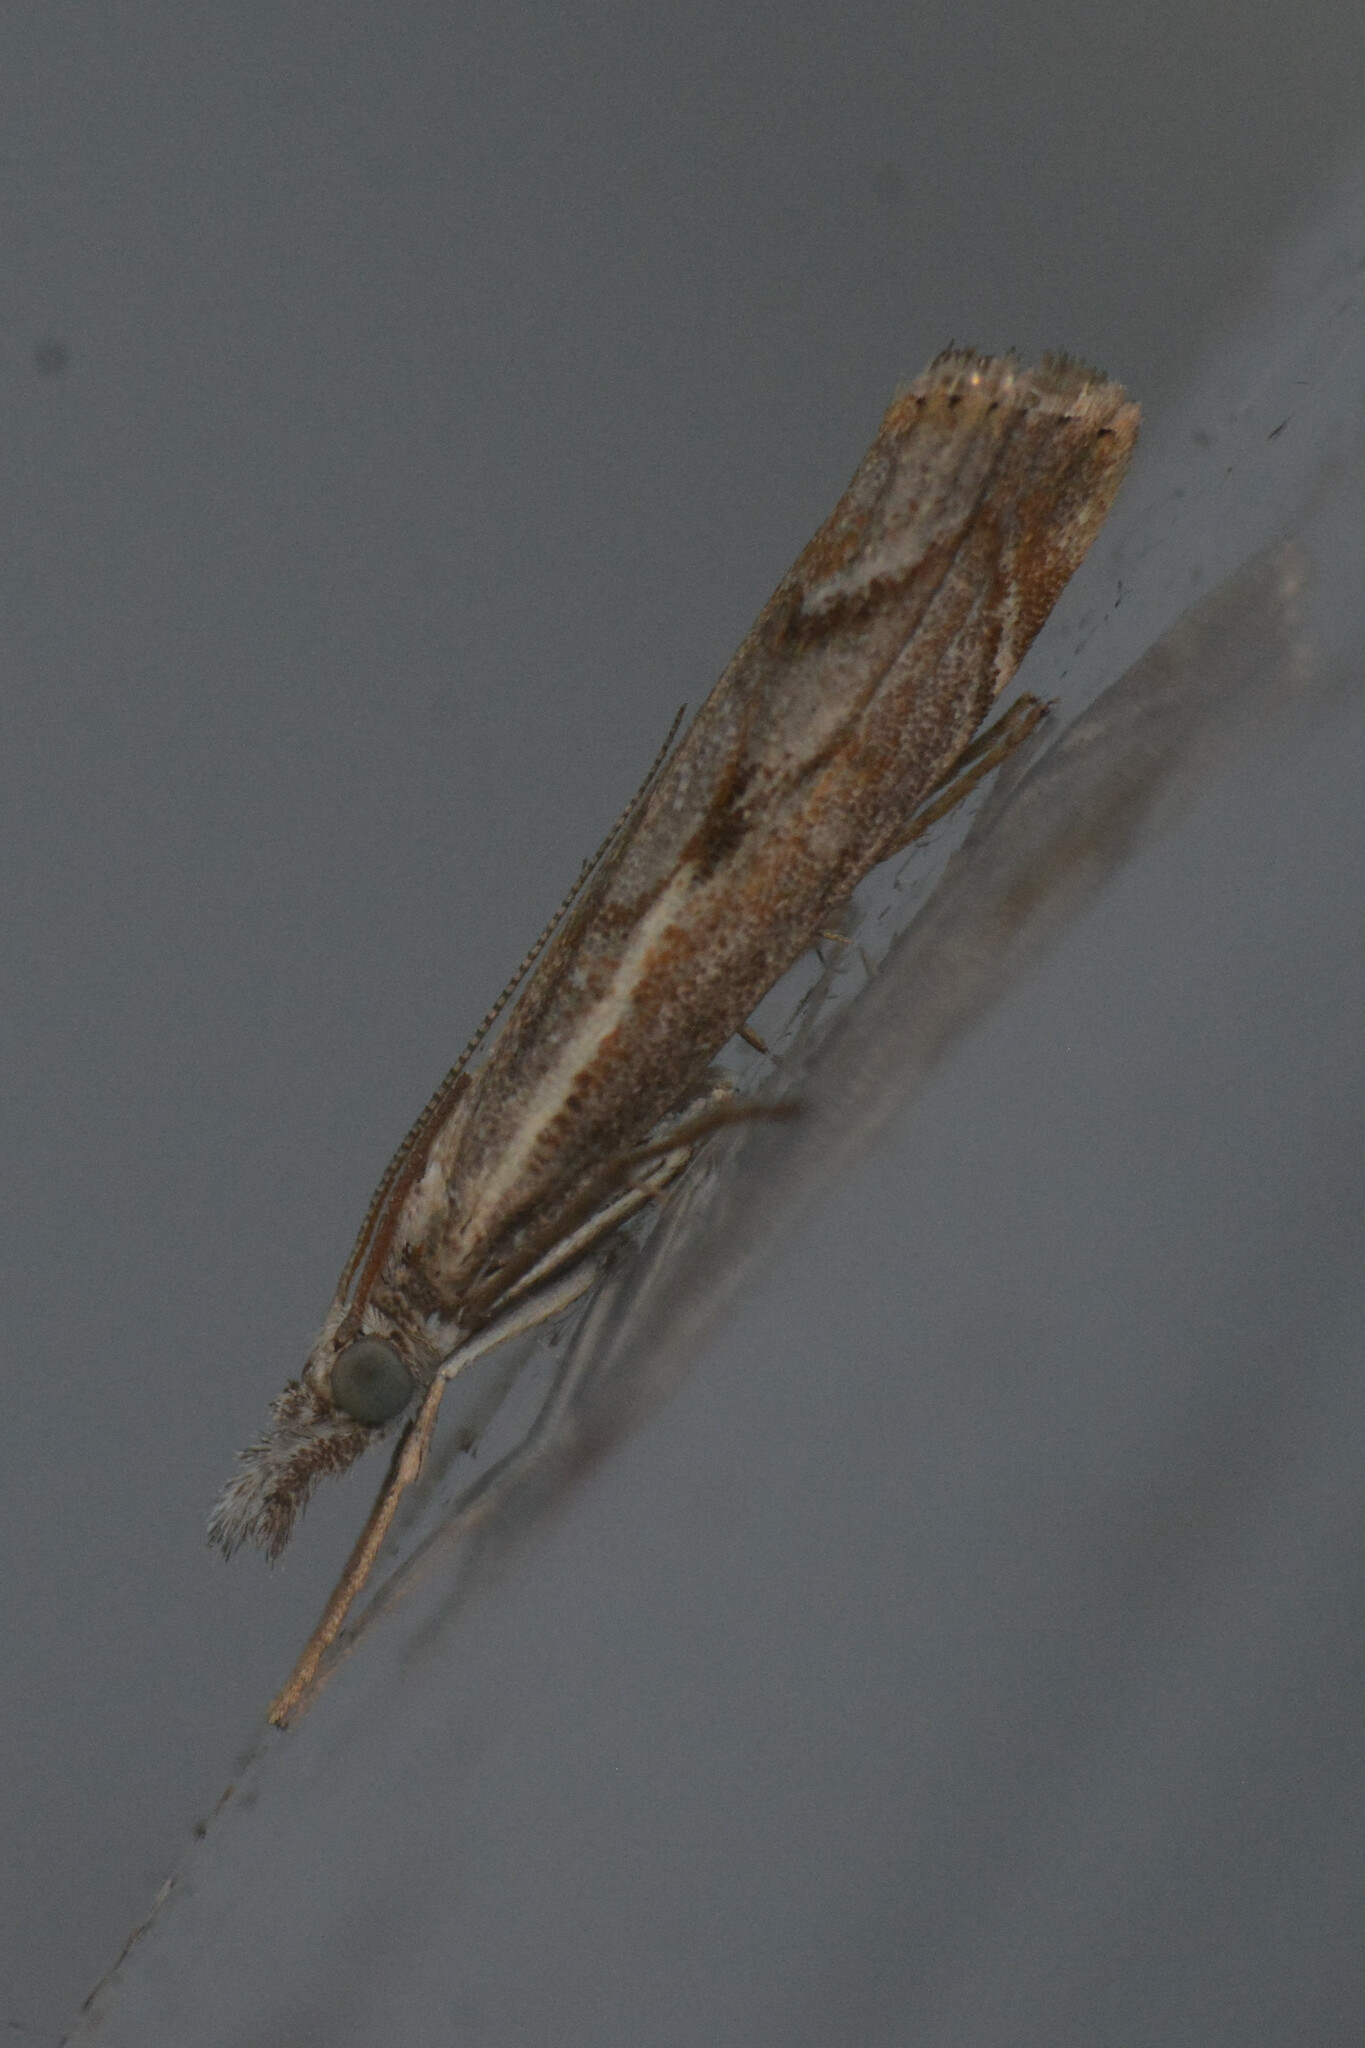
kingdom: Animalia
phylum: Arthropoda
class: Insecta
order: Lepidoptera
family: Crambidae
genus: Agriphila
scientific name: Agriphila geniculea
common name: Elbow-stripe grass-veneer
